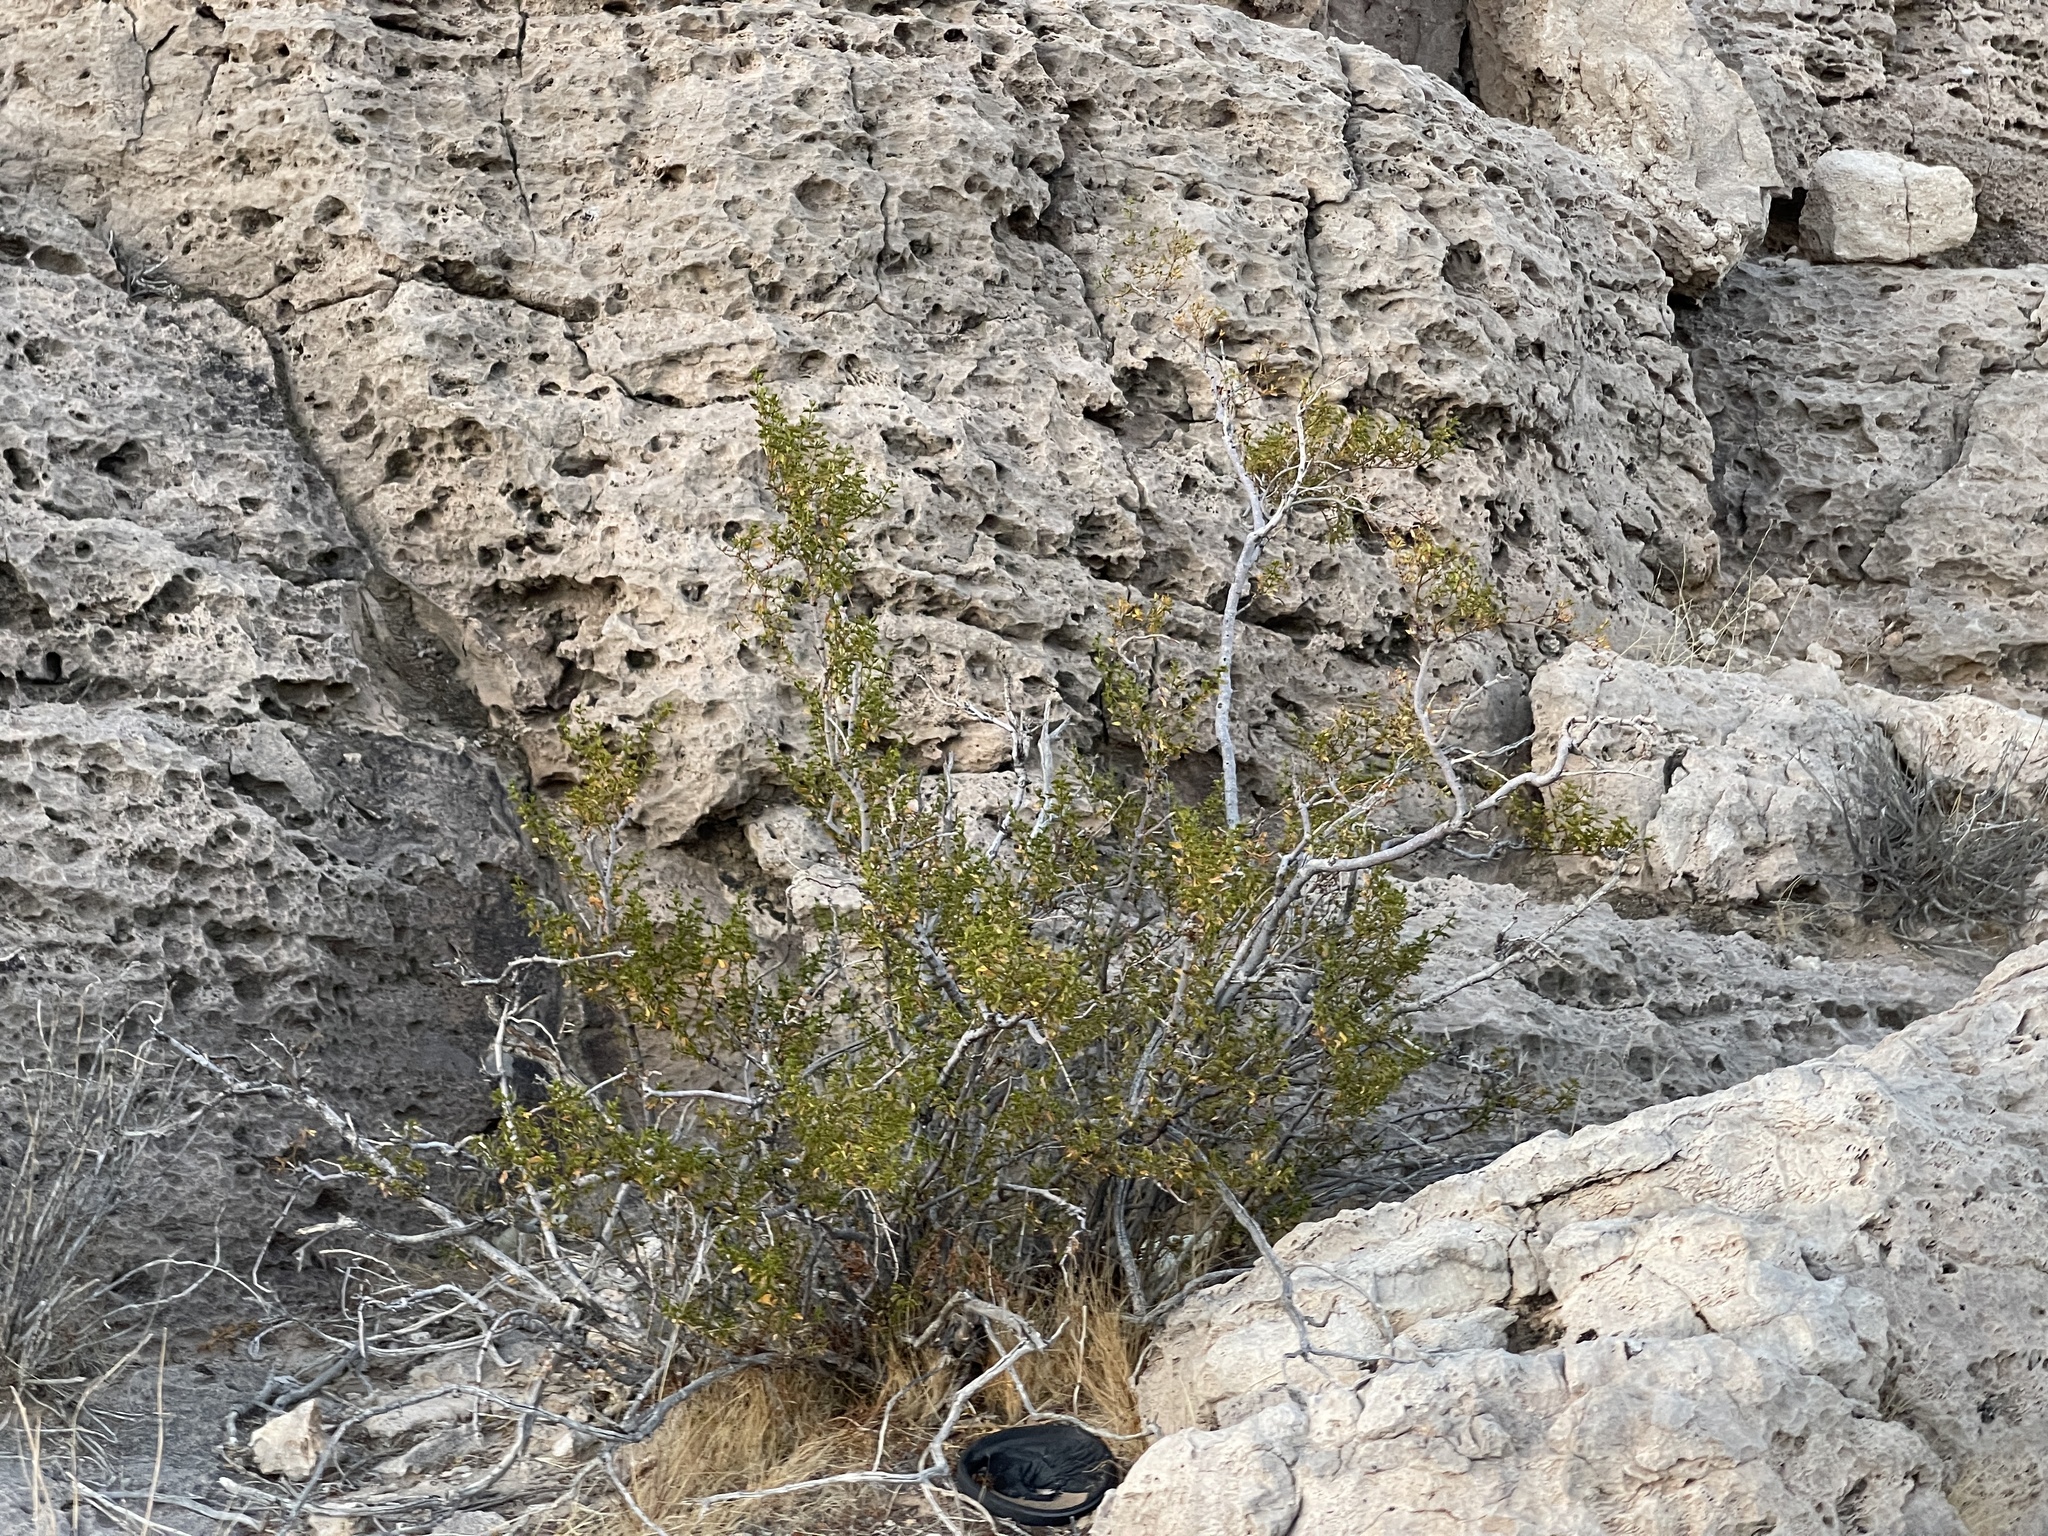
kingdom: Plantae
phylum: Tracheophyta
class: Magnoliopsida
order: Zygophyllales
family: Zygophyllaceae
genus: Larrea
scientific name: Larrea tridentata
